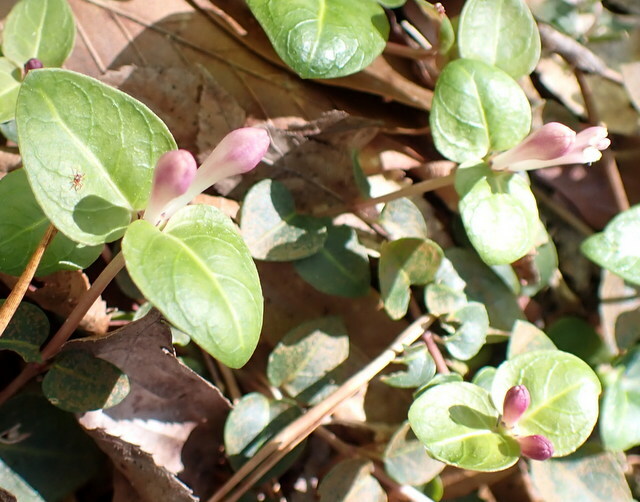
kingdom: Plantae
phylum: Tracheophyta
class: Magnoliopsida
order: Gentianales
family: Rubiaceae
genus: Mitchella
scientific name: Mitchella repens
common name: Partridge-berry
